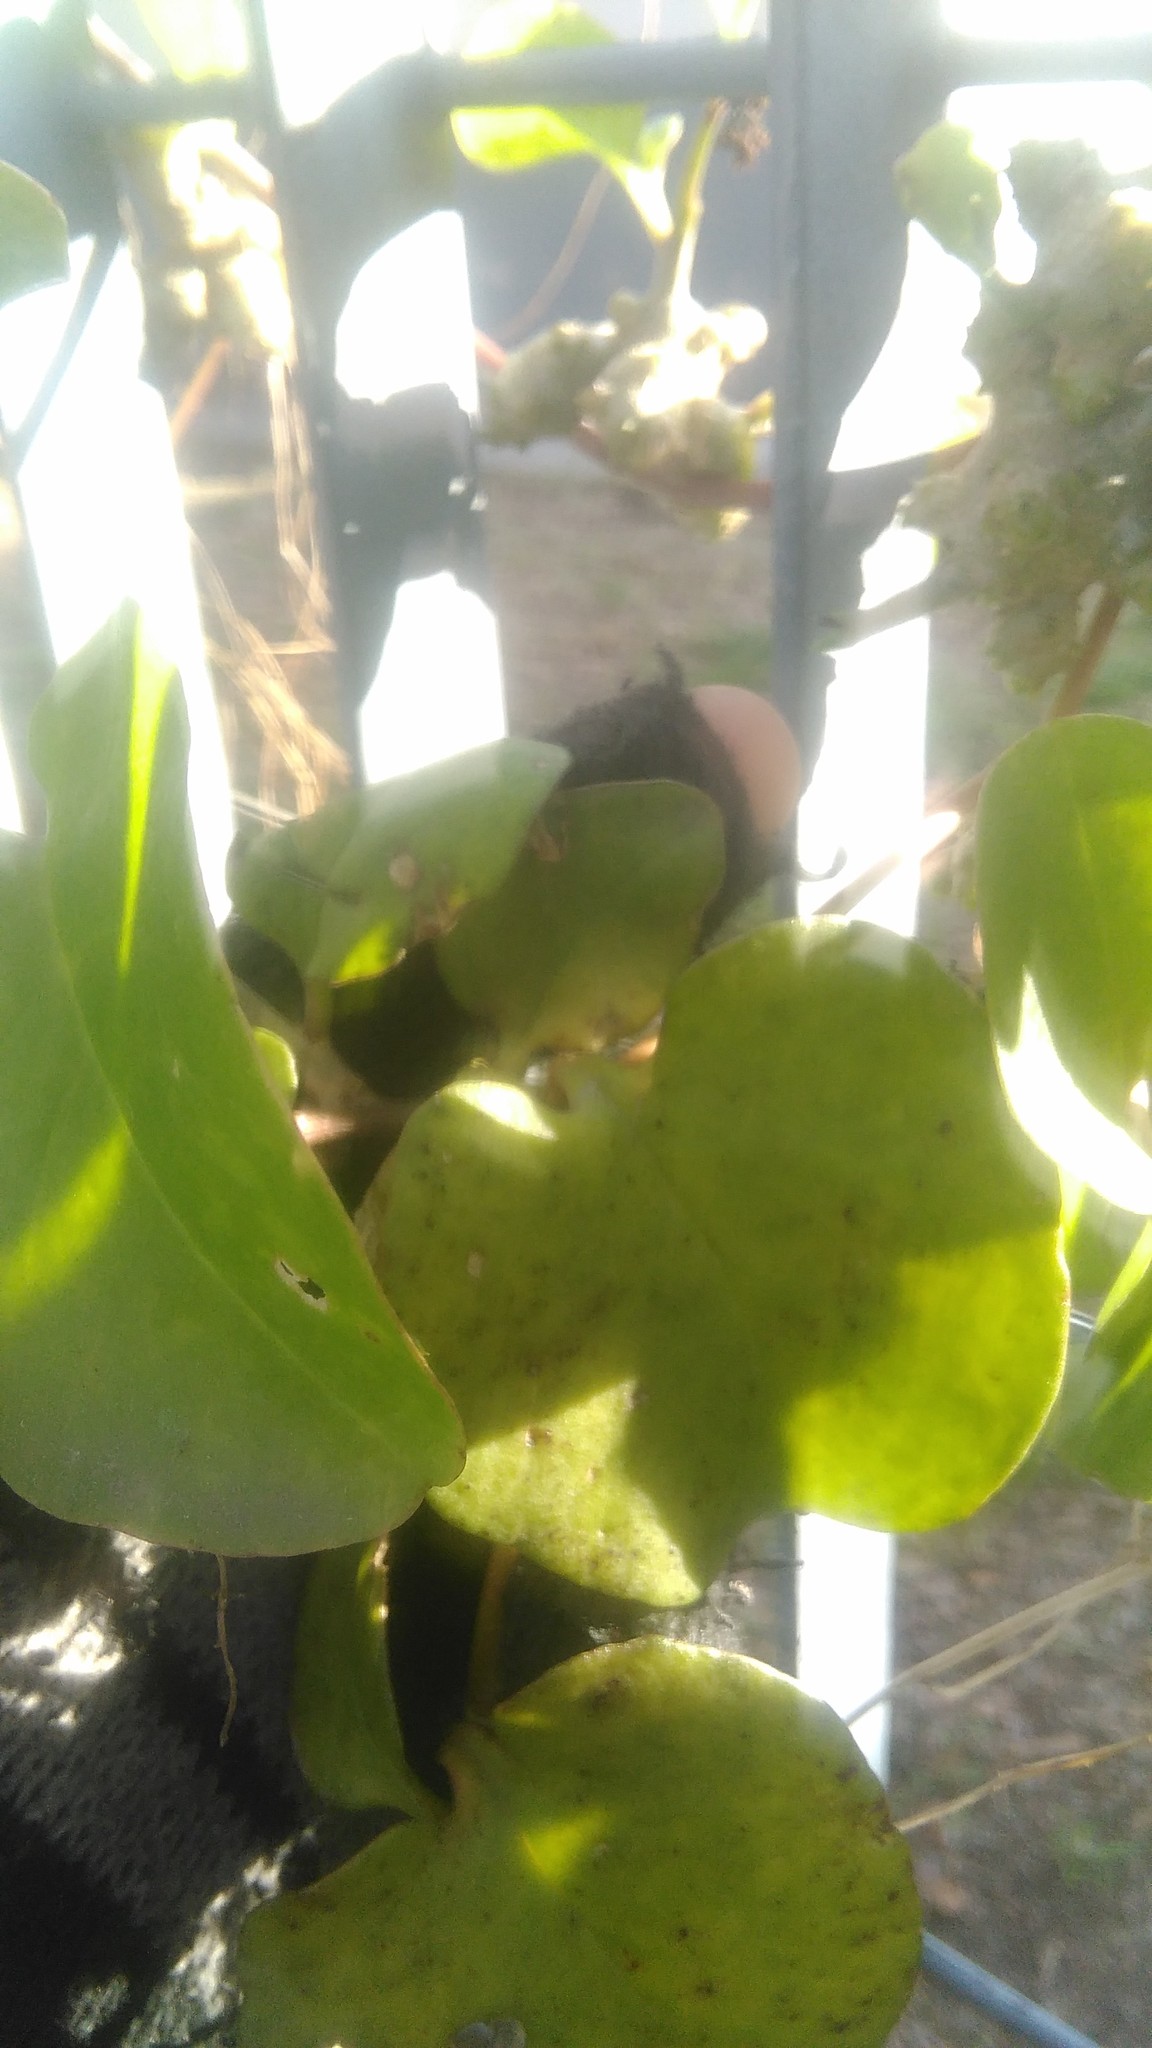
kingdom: Plantae
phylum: Tracheophyta
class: Magnoliopsida
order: Caryophyllales
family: Basellaceae
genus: Anredera
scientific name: Anredera cordifolia
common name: Heartleaf madeiravine
